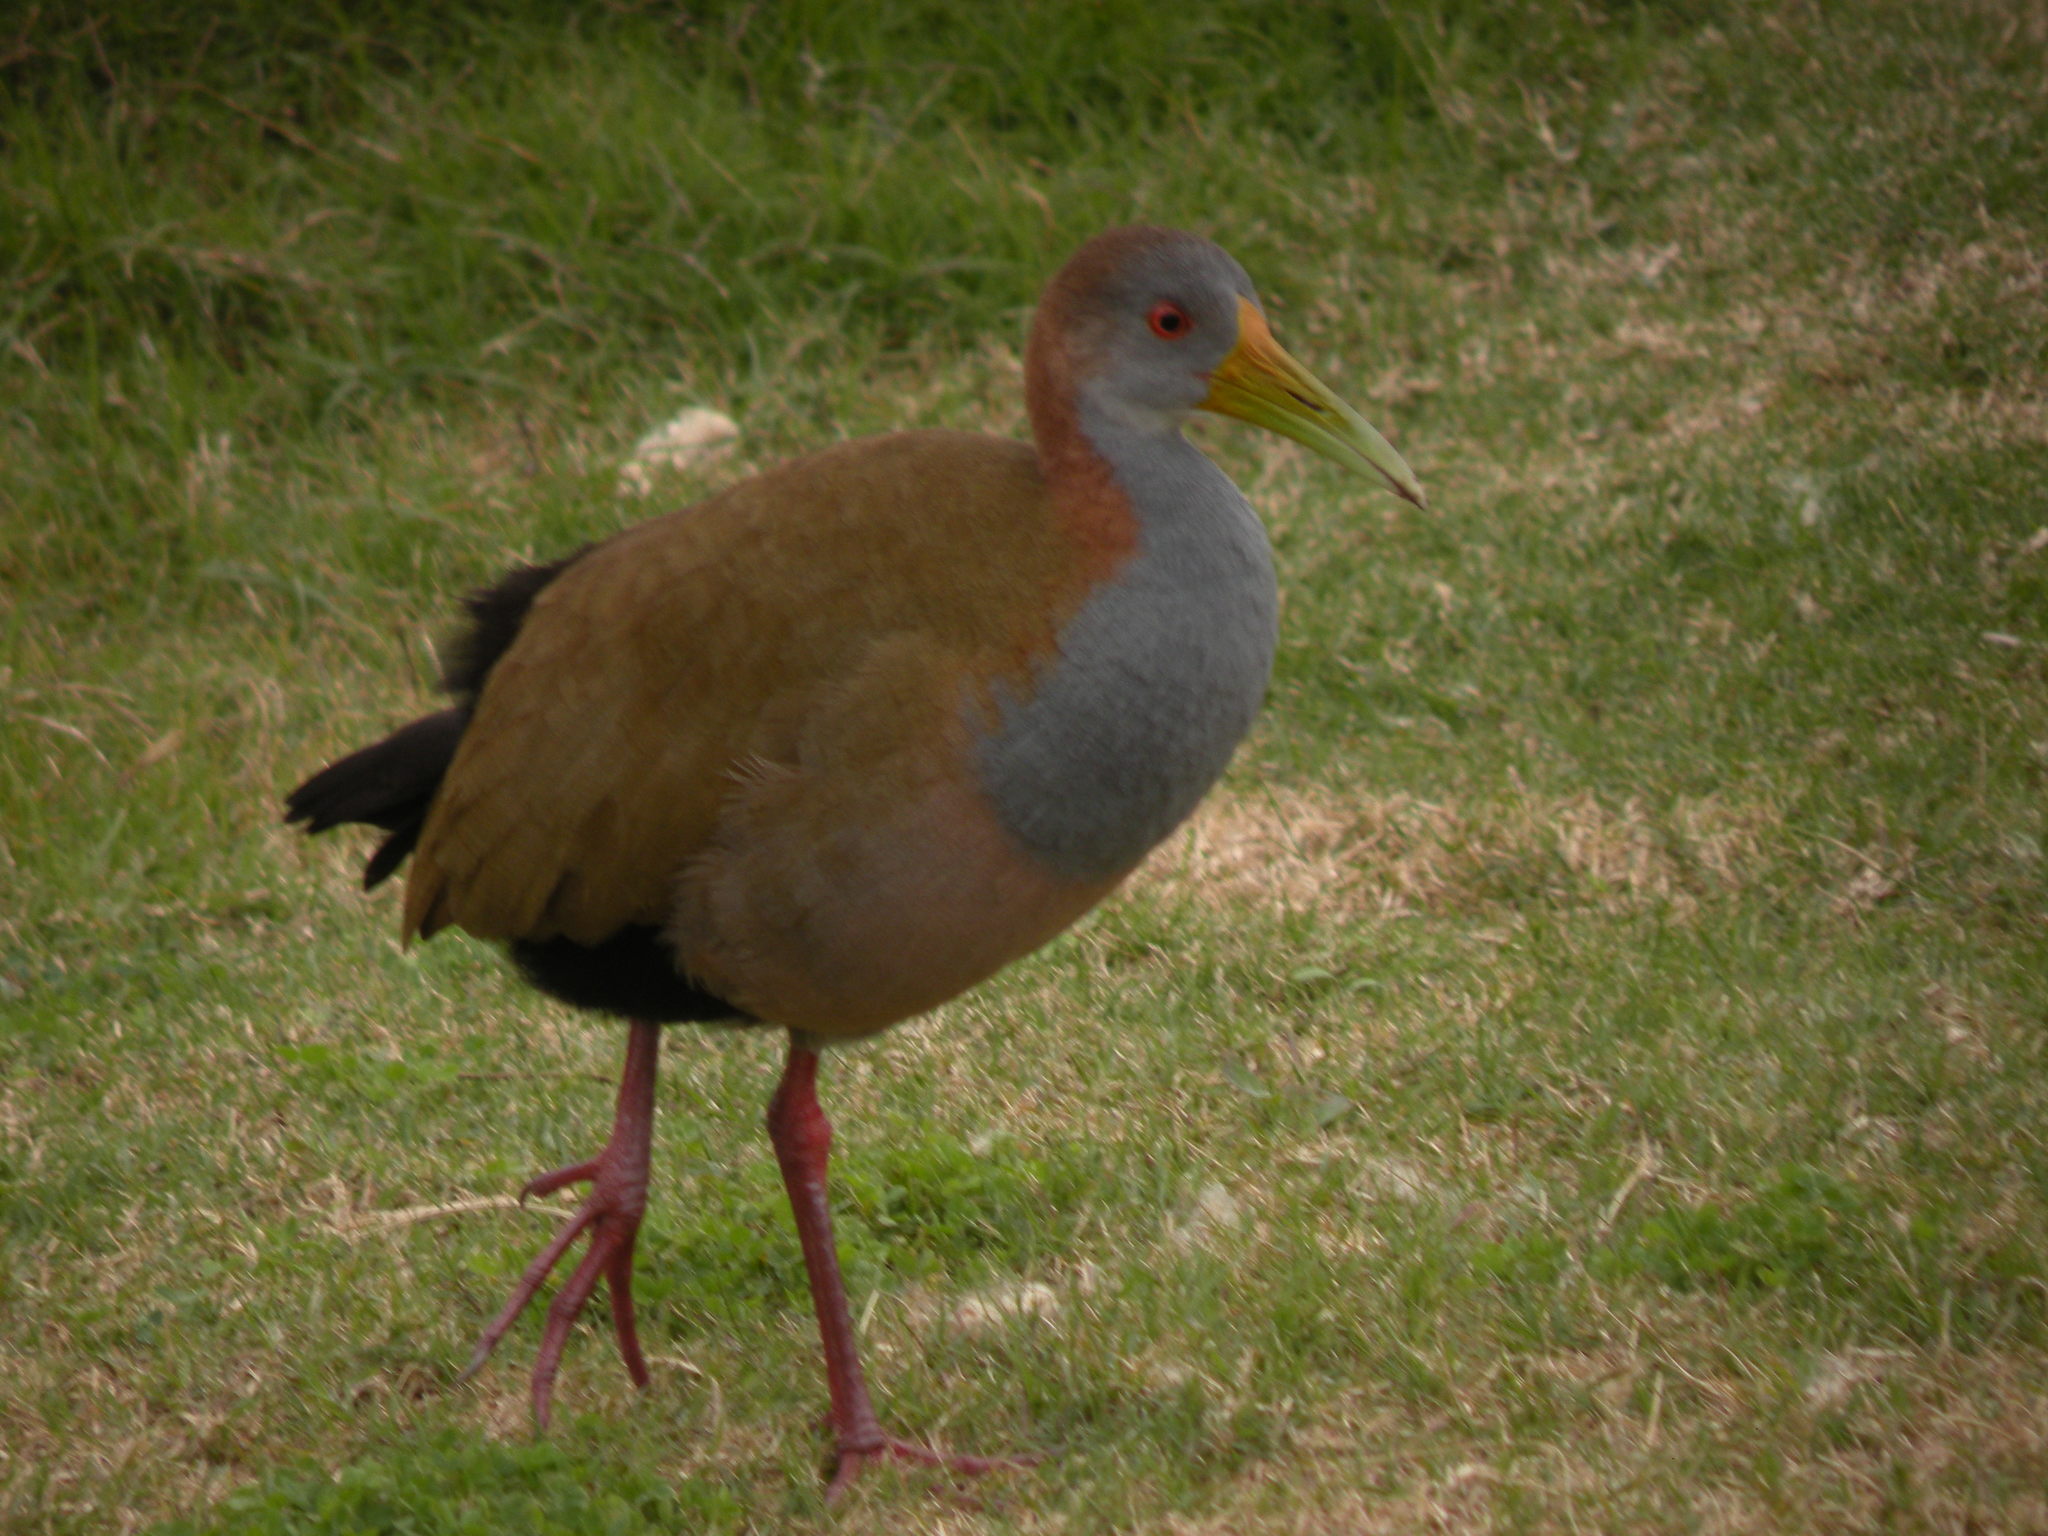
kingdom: Animalia
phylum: Chordata
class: Aves
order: Gruiformes
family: Rallidae
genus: Aramides
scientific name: Aramides ypecaha
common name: Giant wood rail
